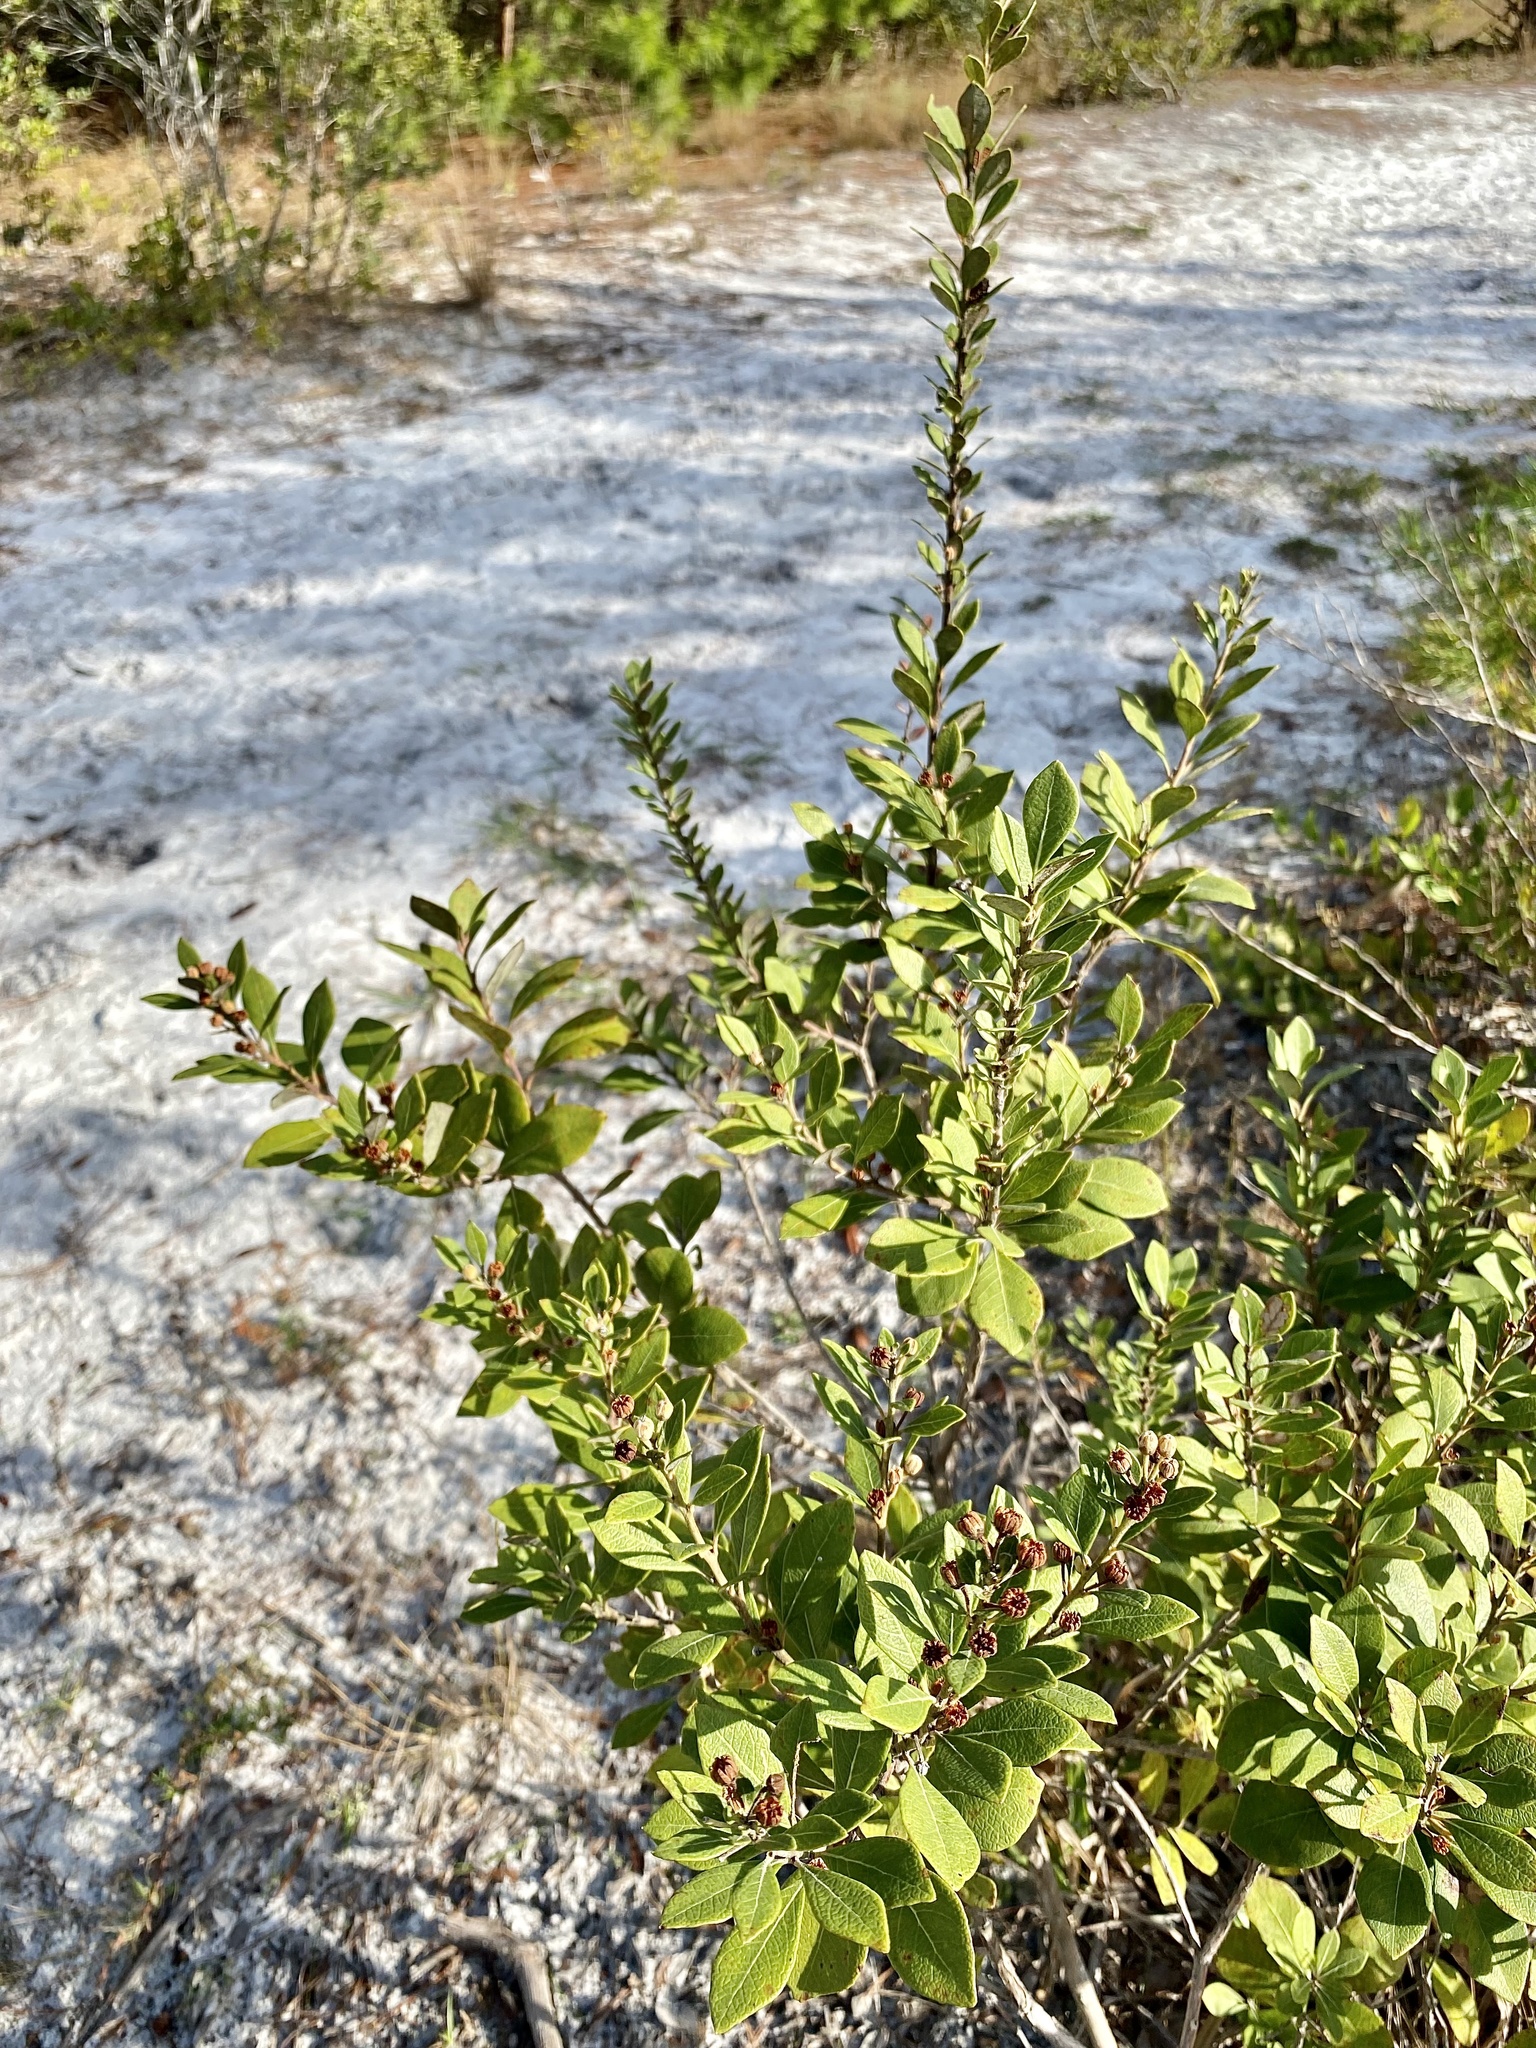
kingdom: Plantae
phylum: Tracheophyta
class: Magnoliopsida
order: Ericales
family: Ericaceae
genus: Lyonia
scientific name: Lyonia fruticosa
